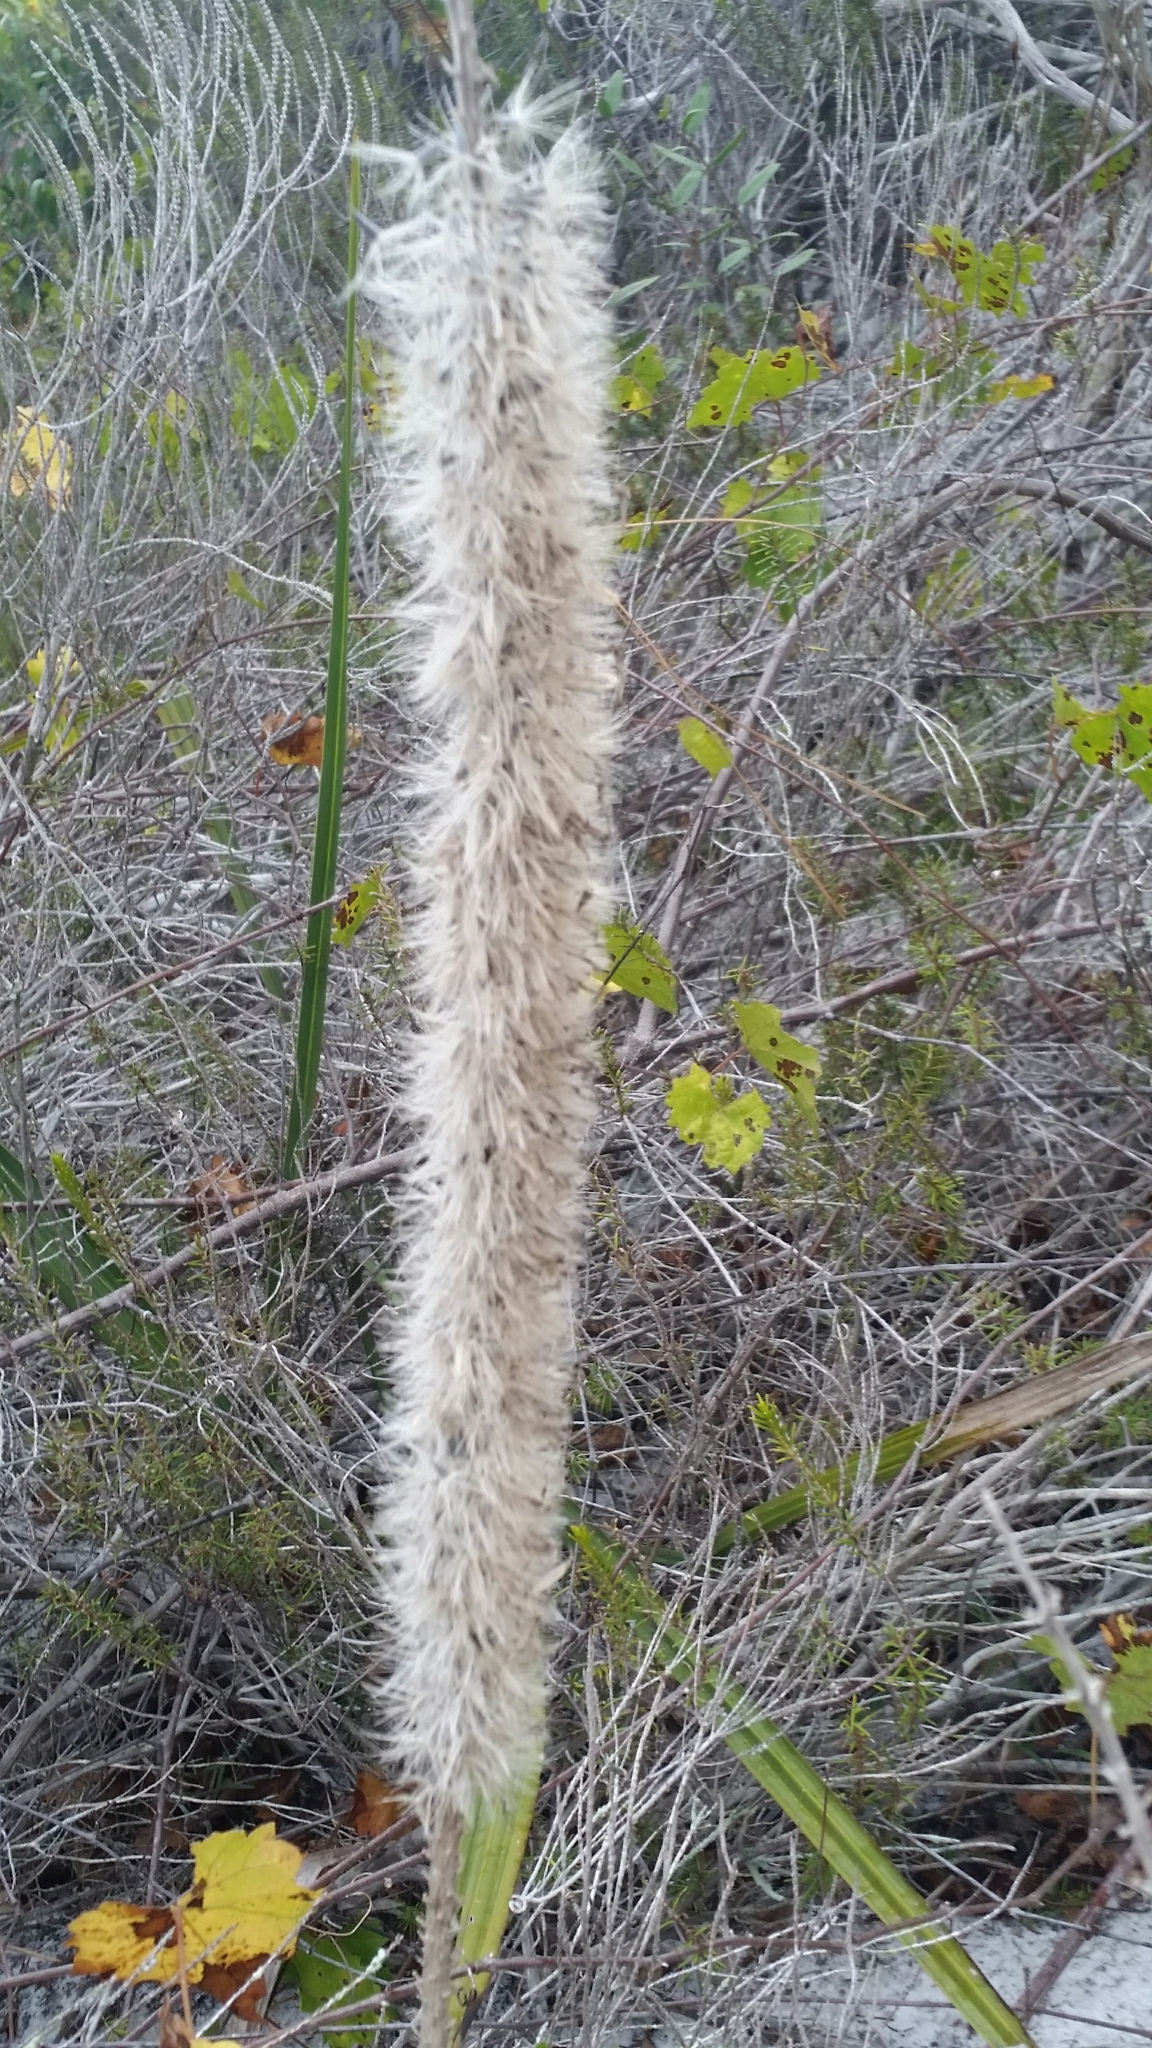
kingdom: Plantae
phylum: Tracheophyta
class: Magnoliopsida
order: Asterales
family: Asteraceae
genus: Liatris
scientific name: Liatris chapmanii
